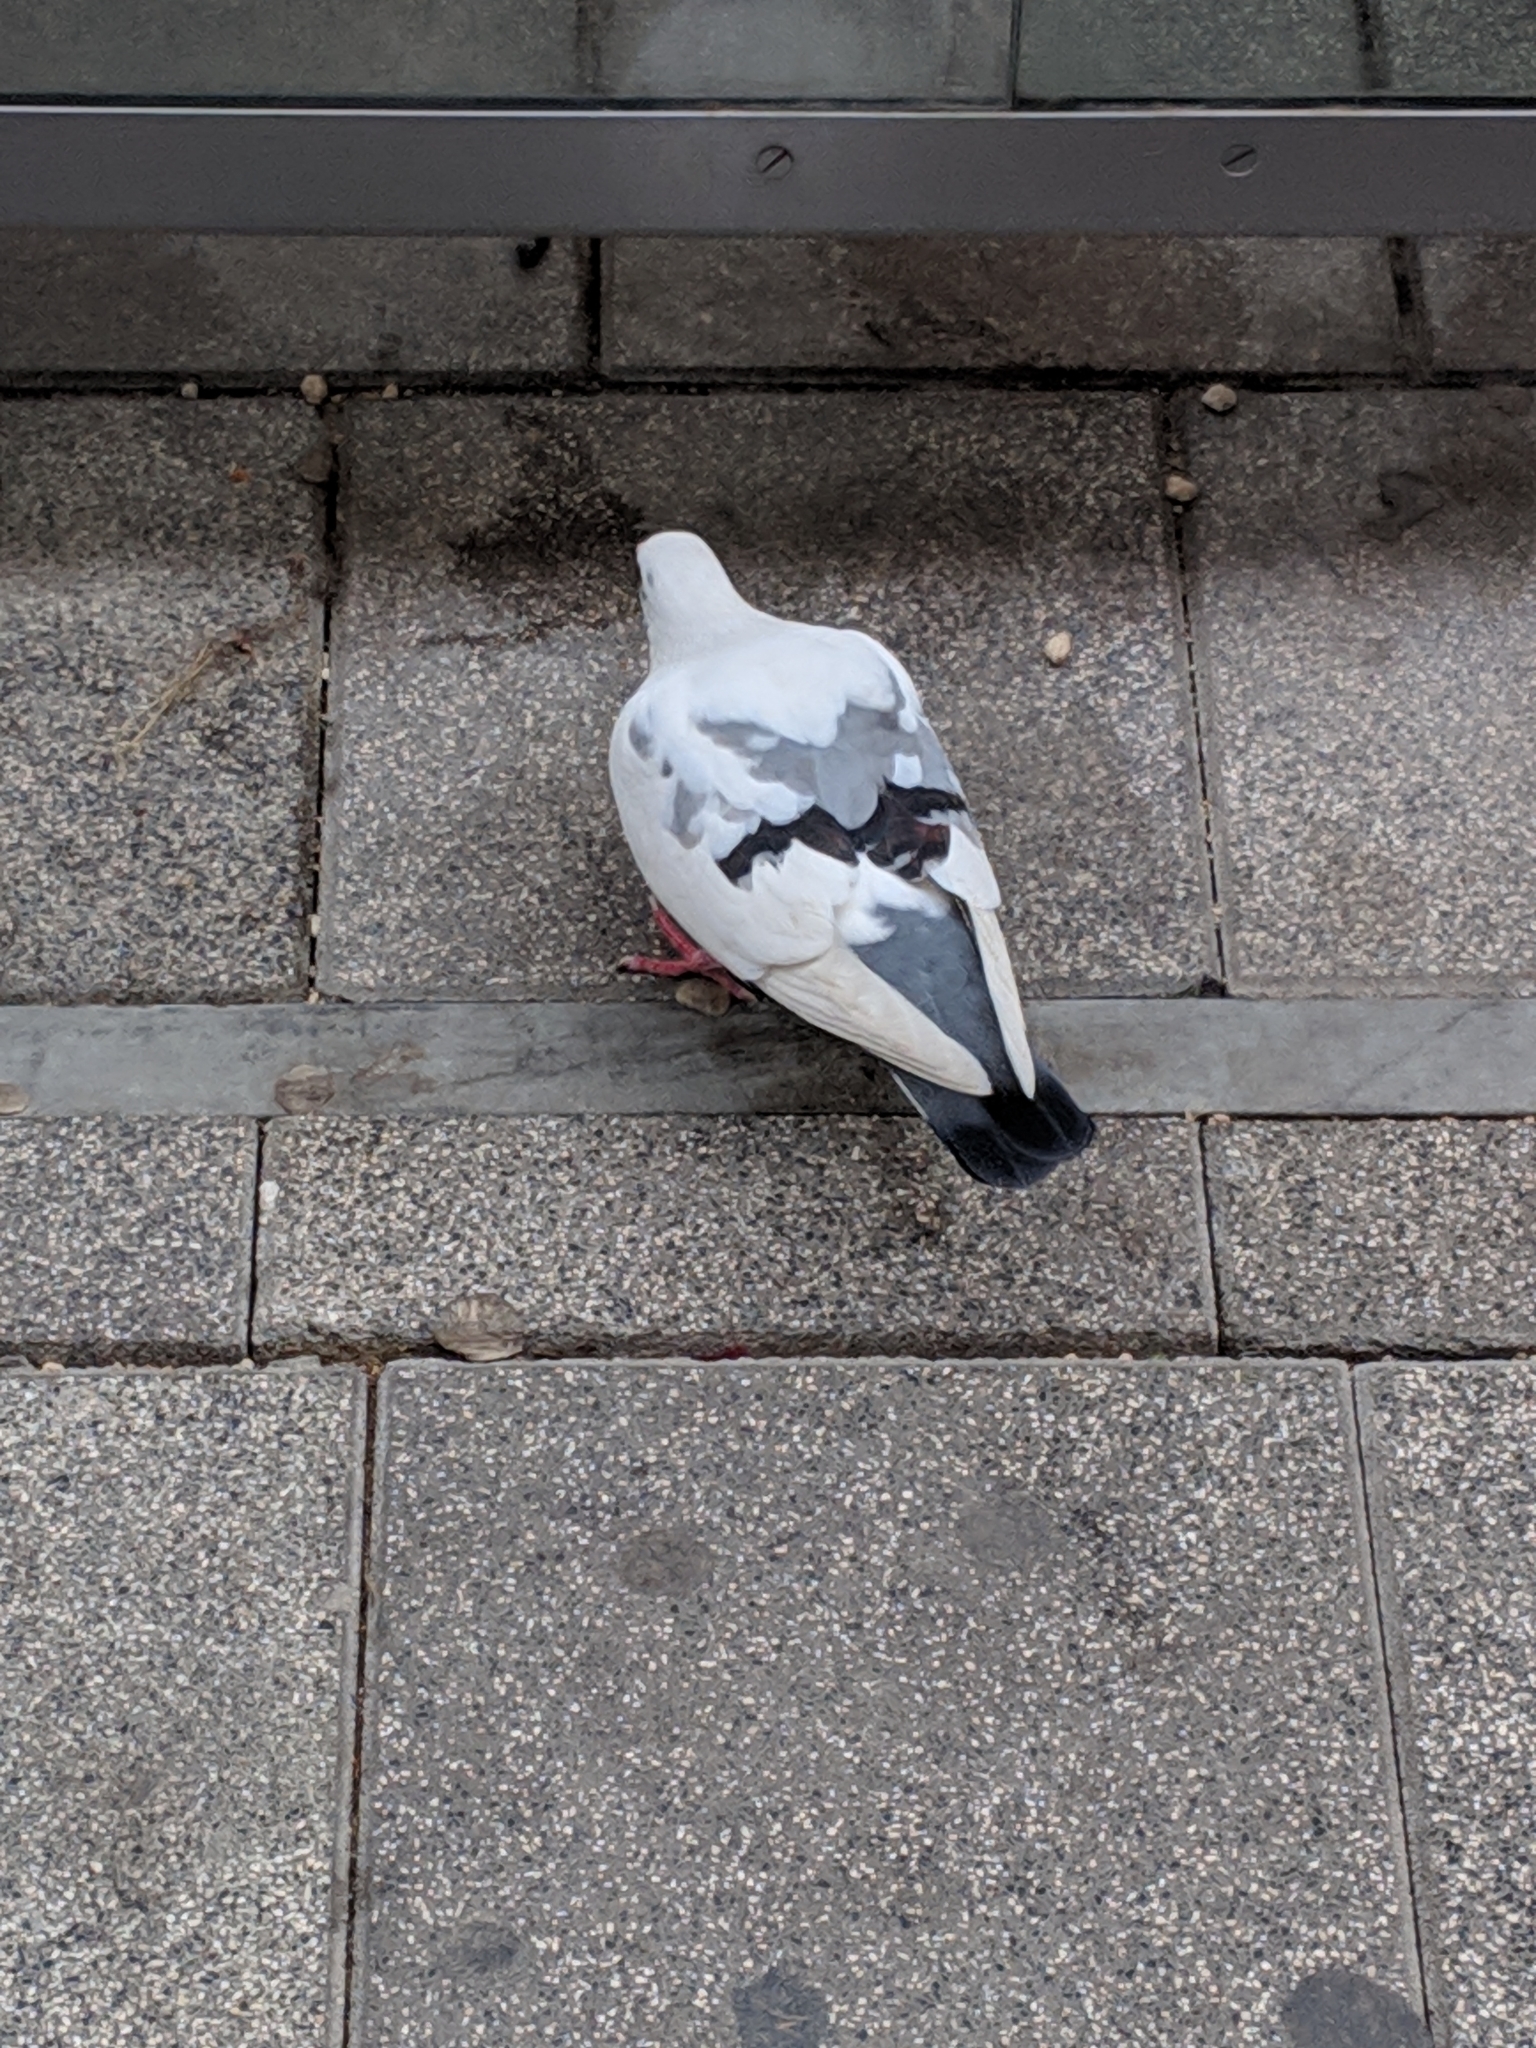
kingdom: Animalia
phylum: Chordata
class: Aves
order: Columbiformes
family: Columbidae
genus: Columba
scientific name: Columba livia
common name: Rock pigeon
